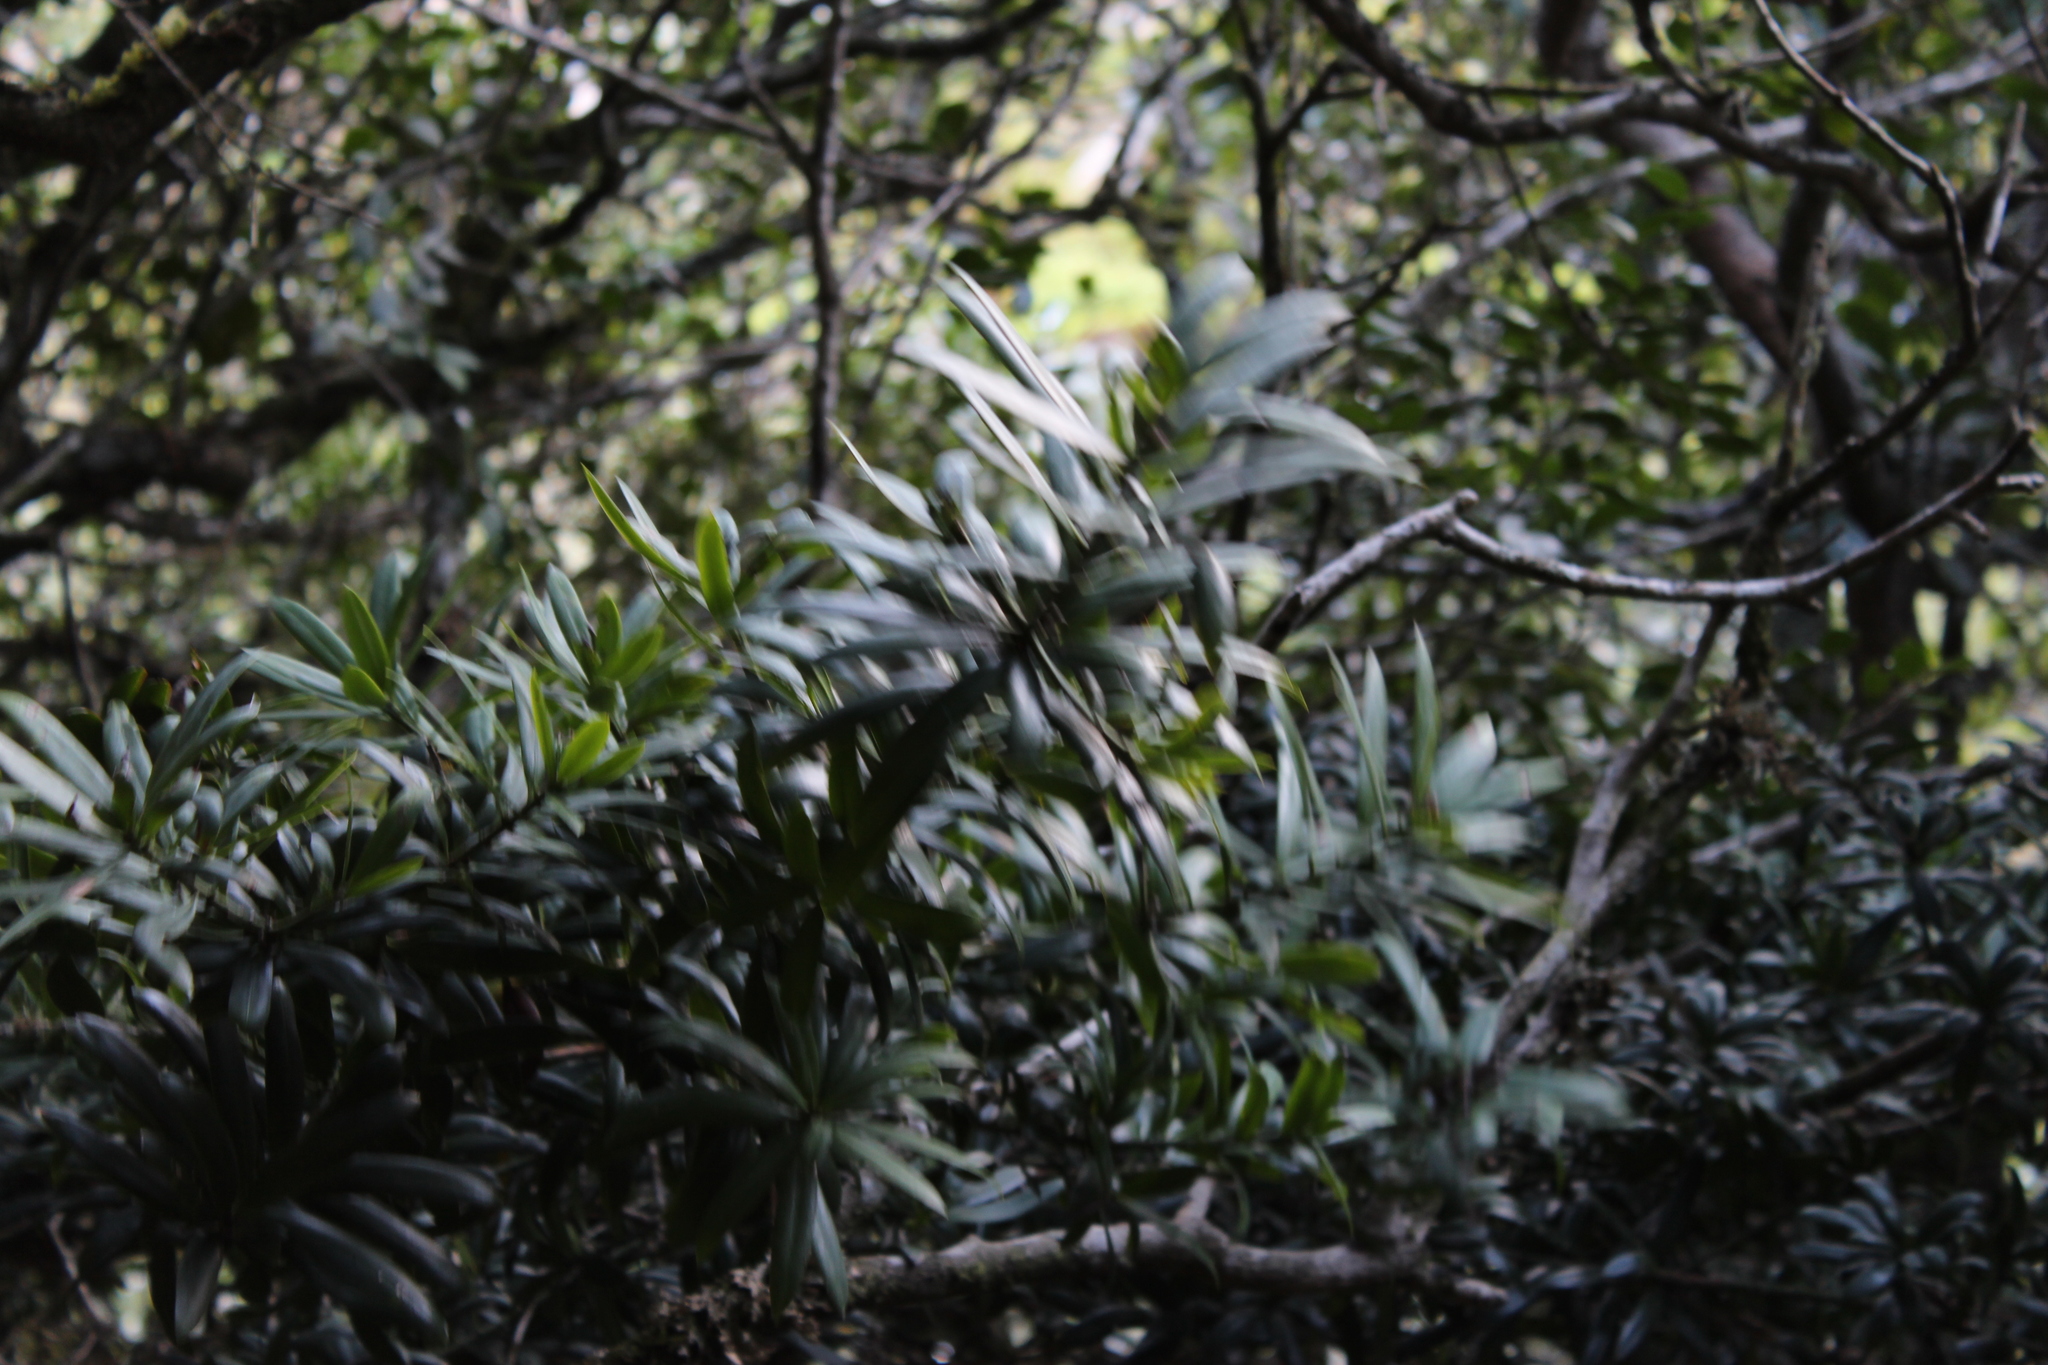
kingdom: Plantae
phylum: Tracheophyta
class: Pinopsida
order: Pinales
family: Podocarpaceae
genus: Podocarpus
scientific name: Podocarpus latifolius
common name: True yellowwood
